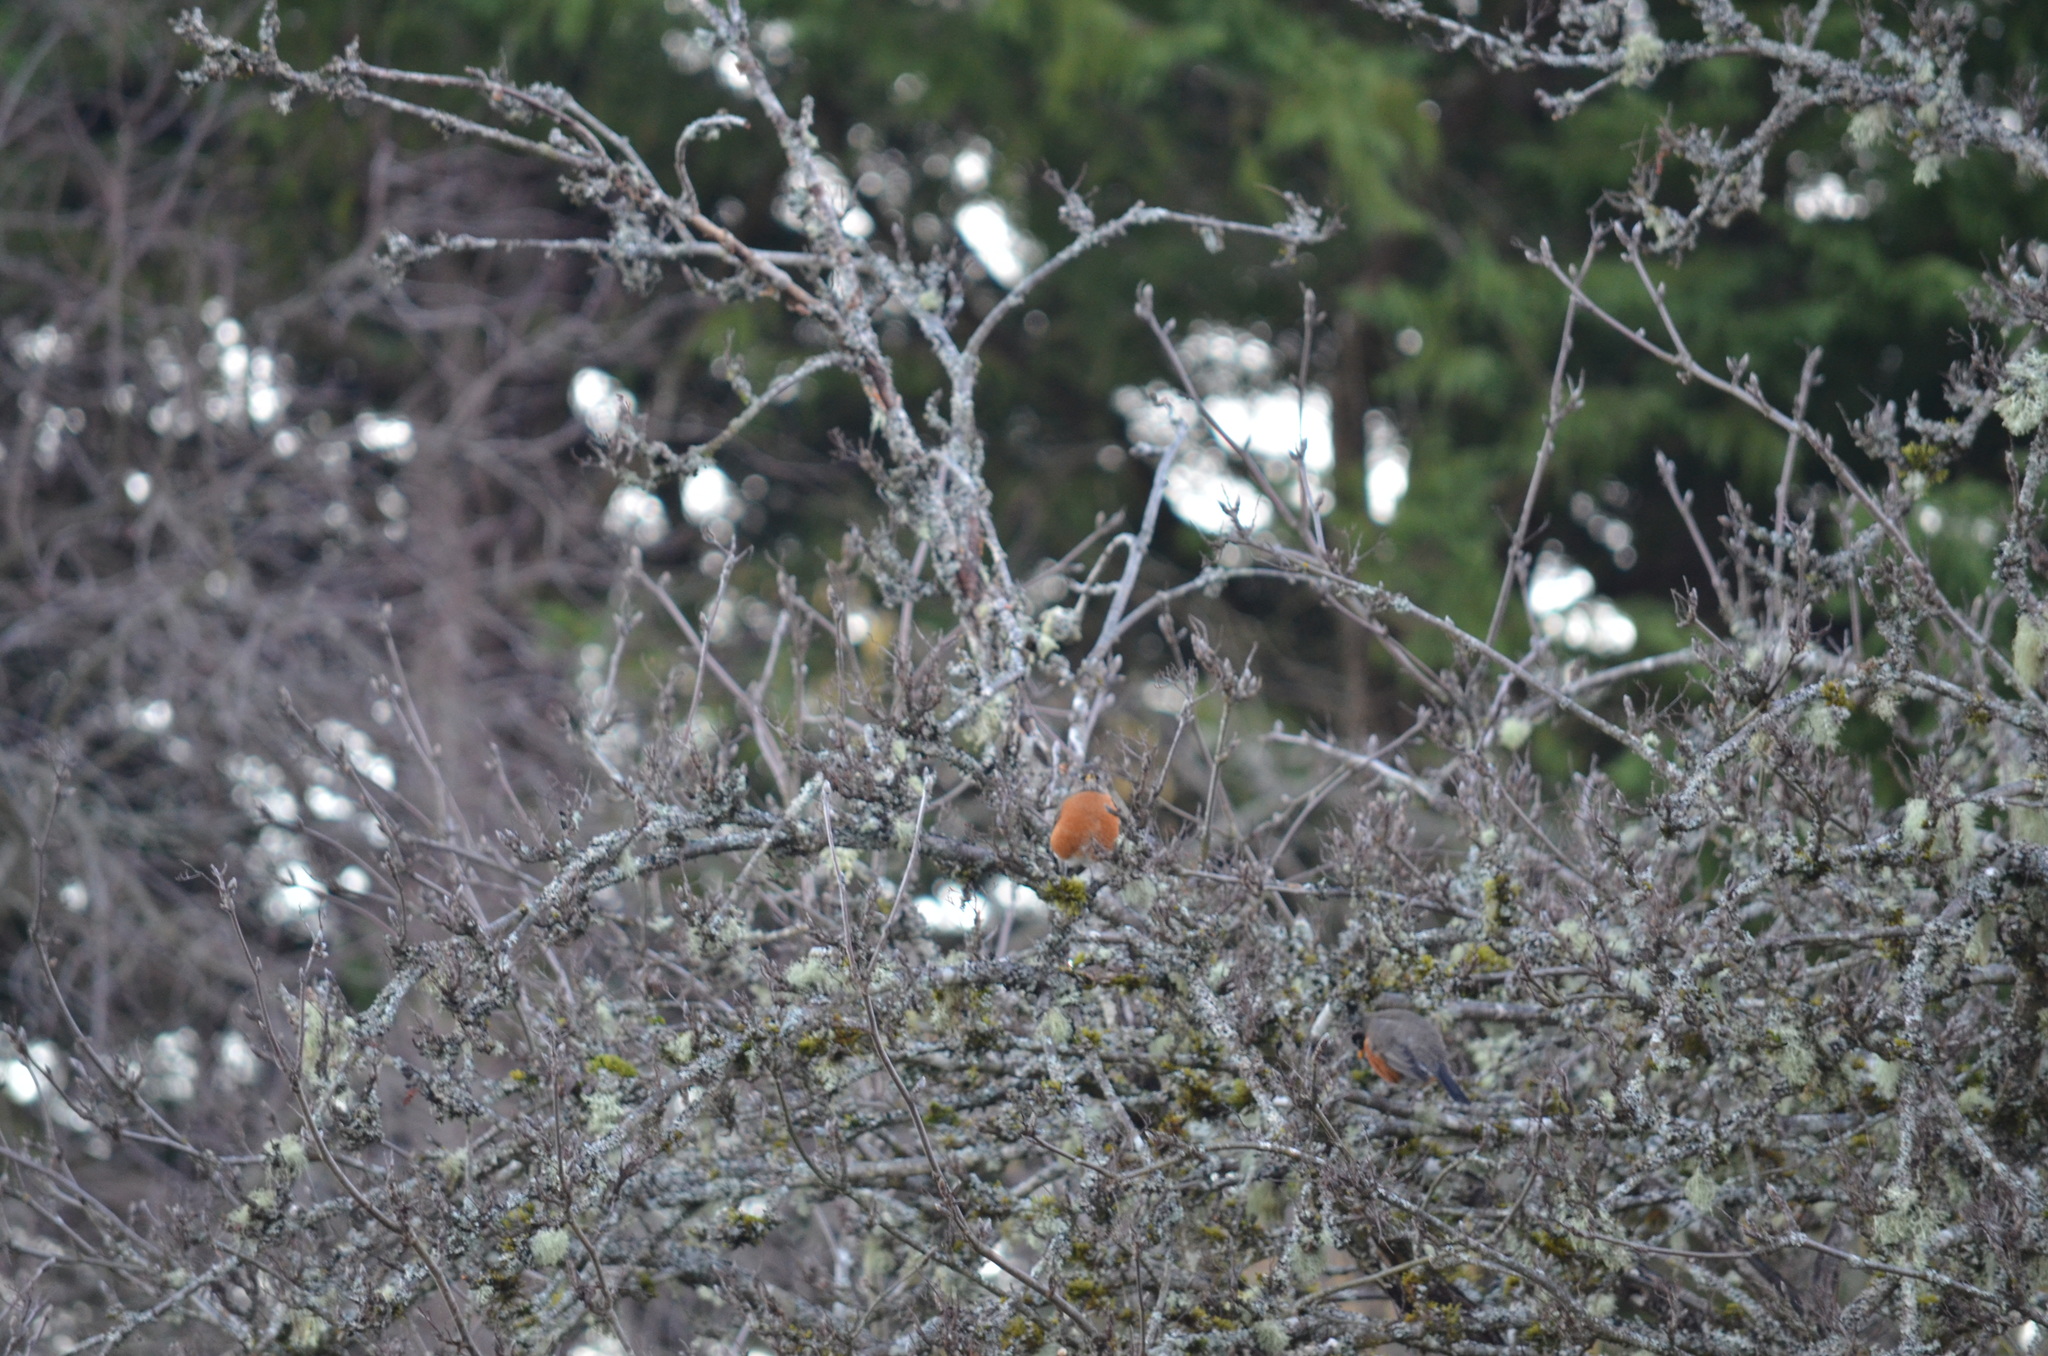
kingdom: Animalia
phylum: Chordata
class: Aves
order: Passeriformes
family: Turdidae
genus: Turdus
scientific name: Turdus migratorius
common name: American robin
